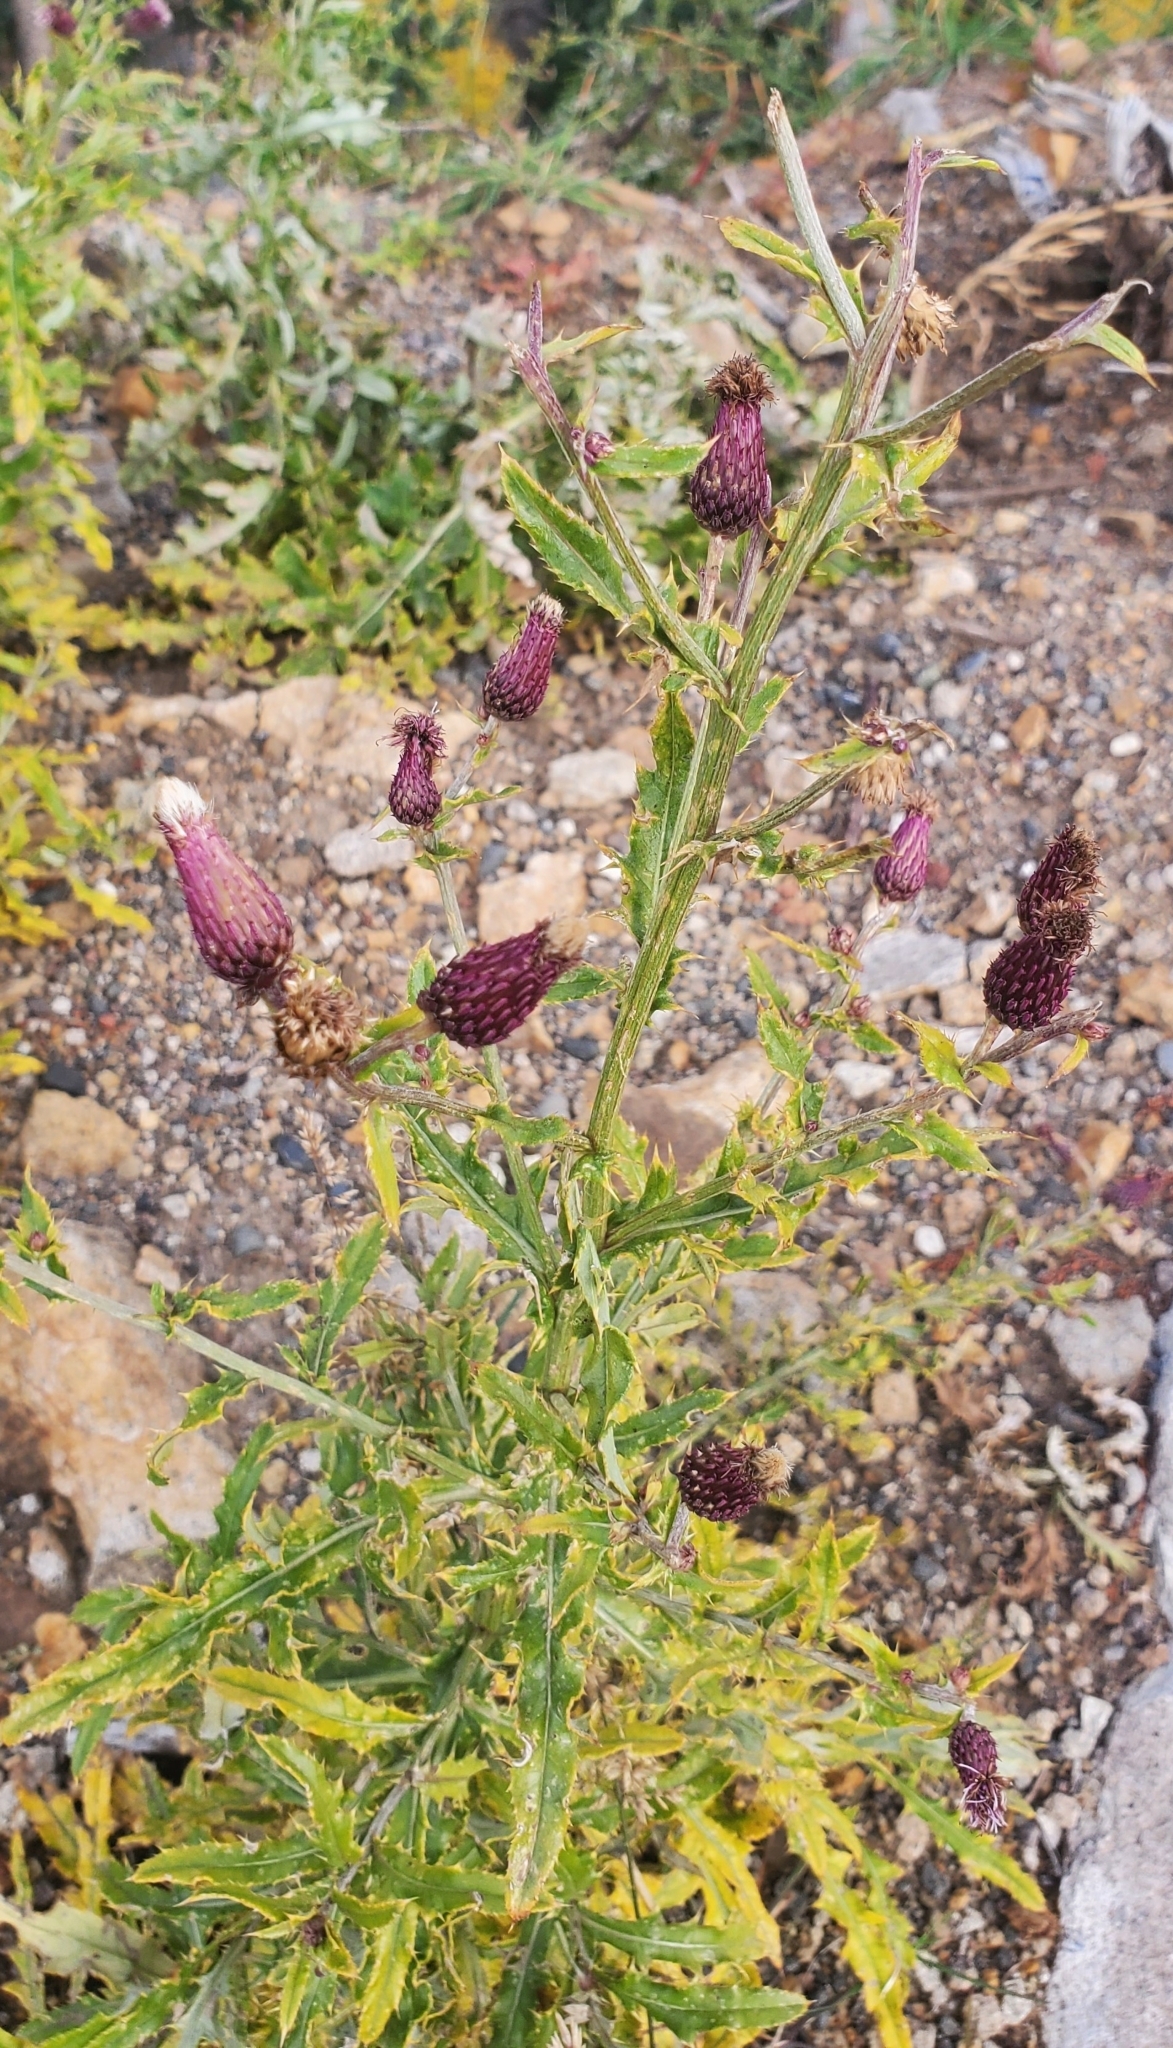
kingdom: Plantae
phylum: Tracheophyta
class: Magnoliopsida
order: Asterales
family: Asteraceae
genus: Cirsium
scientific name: Cirsium arvense
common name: Creeping thistle
